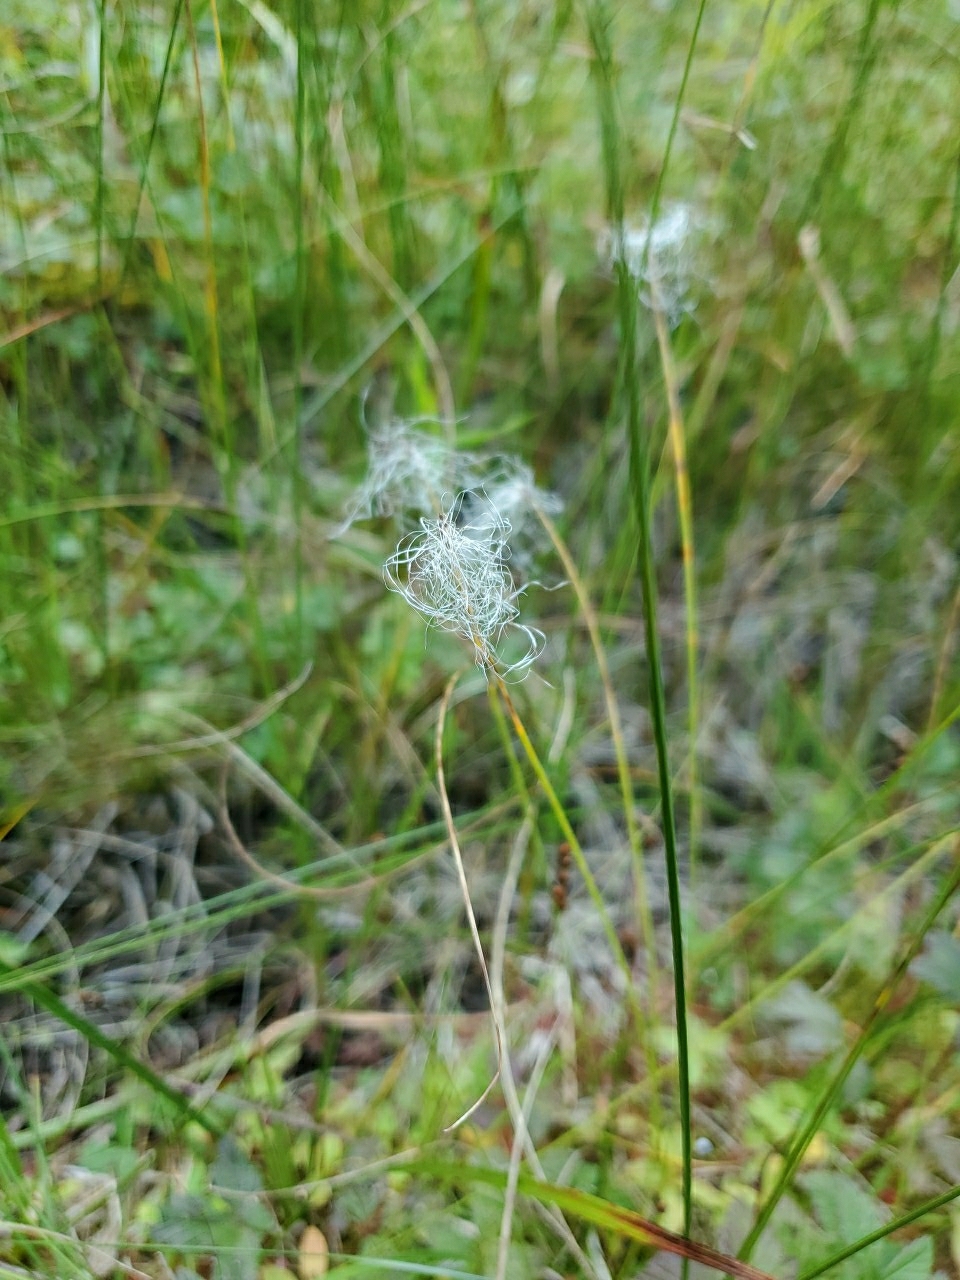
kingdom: Plantae
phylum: Tracheophyta
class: Liliopsida
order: Poales
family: Cyperaceae
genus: Trichophorum
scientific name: Trichophorum alpinum
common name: Alpine bulrush
